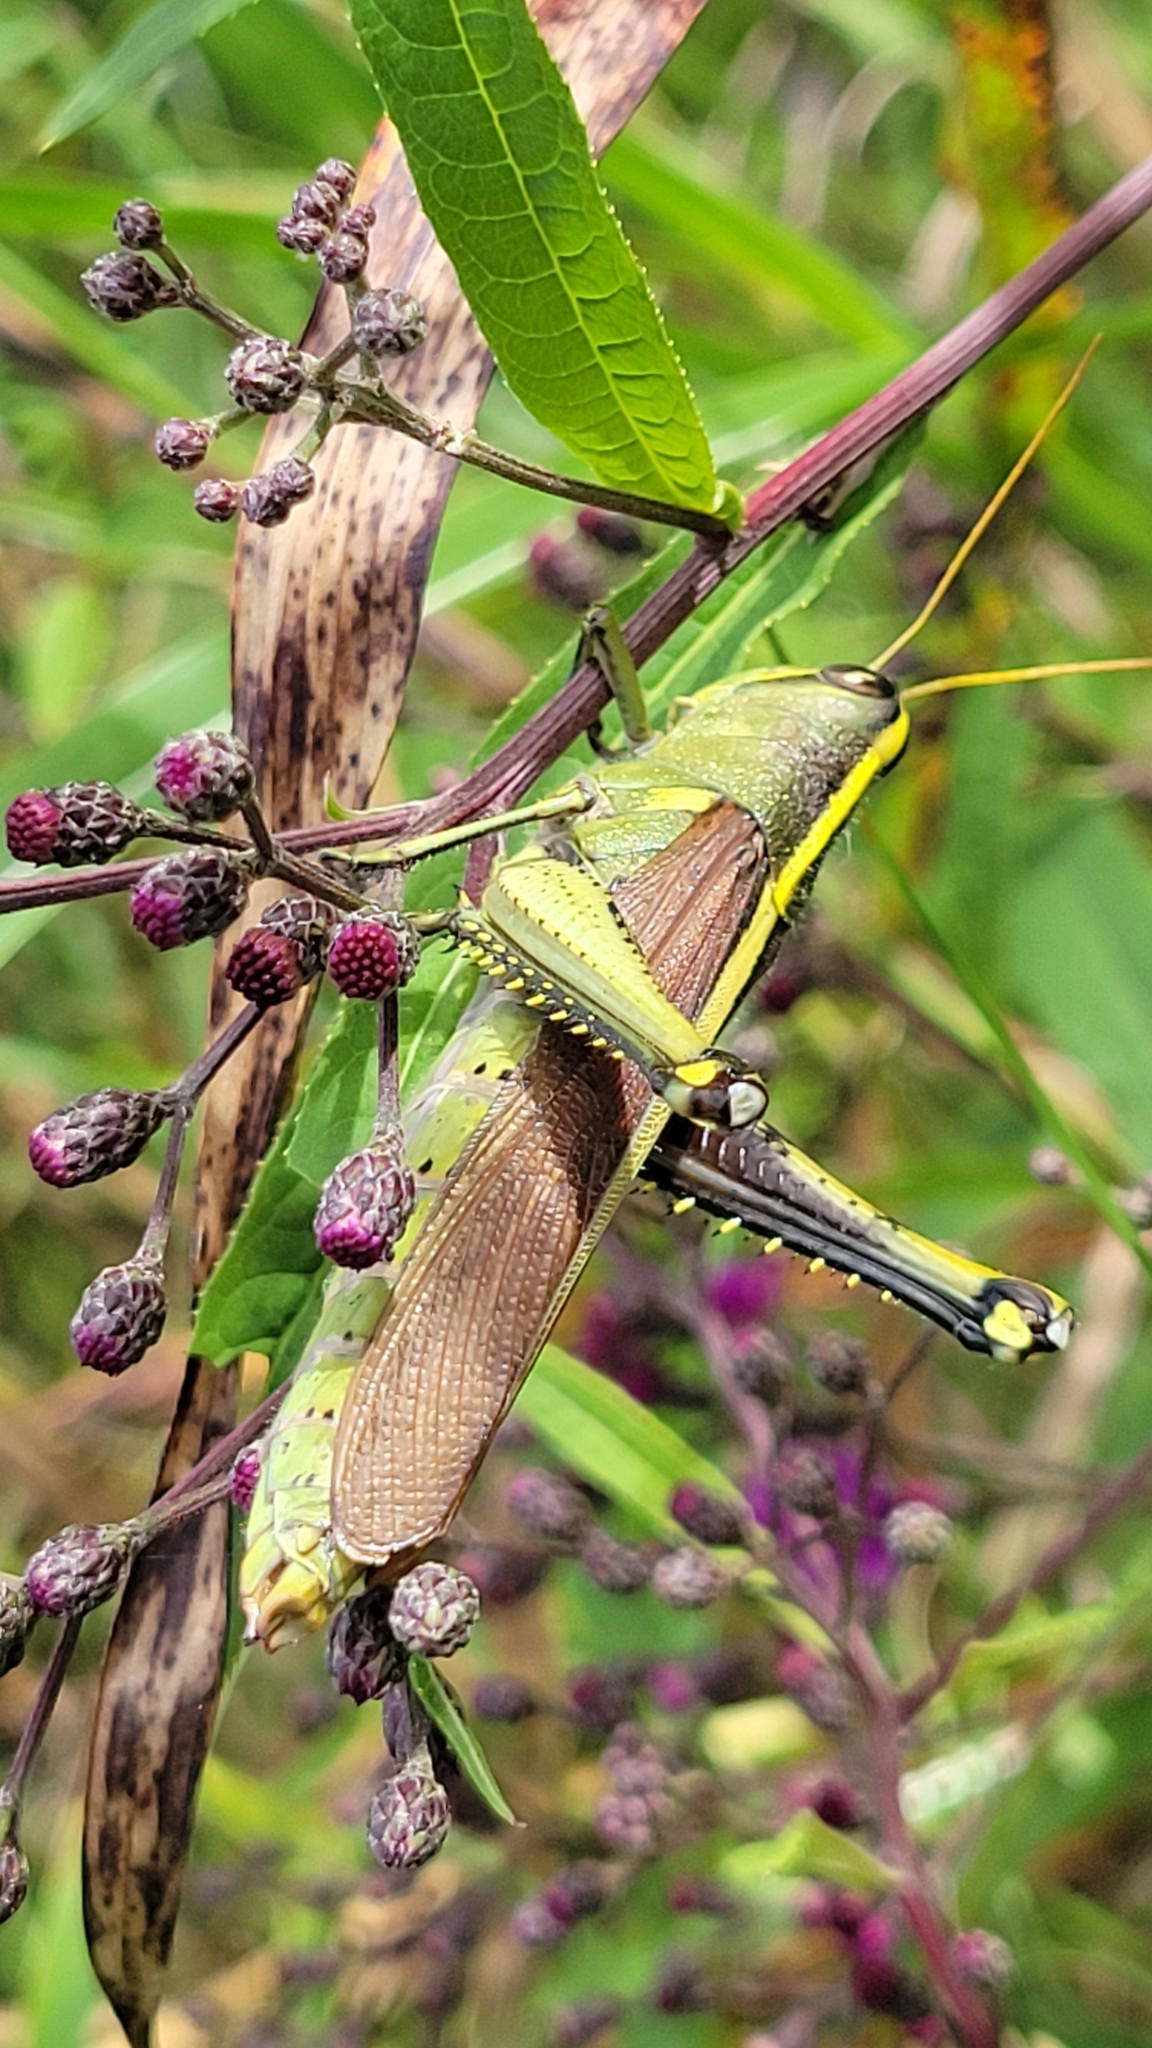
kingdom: Animalia
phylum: Arthropoda
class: Insecta
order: Orthoptera
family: Acrididae
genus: Schistocerca
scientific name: Schistocerca obscura
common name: Obscure bird grasshopper
